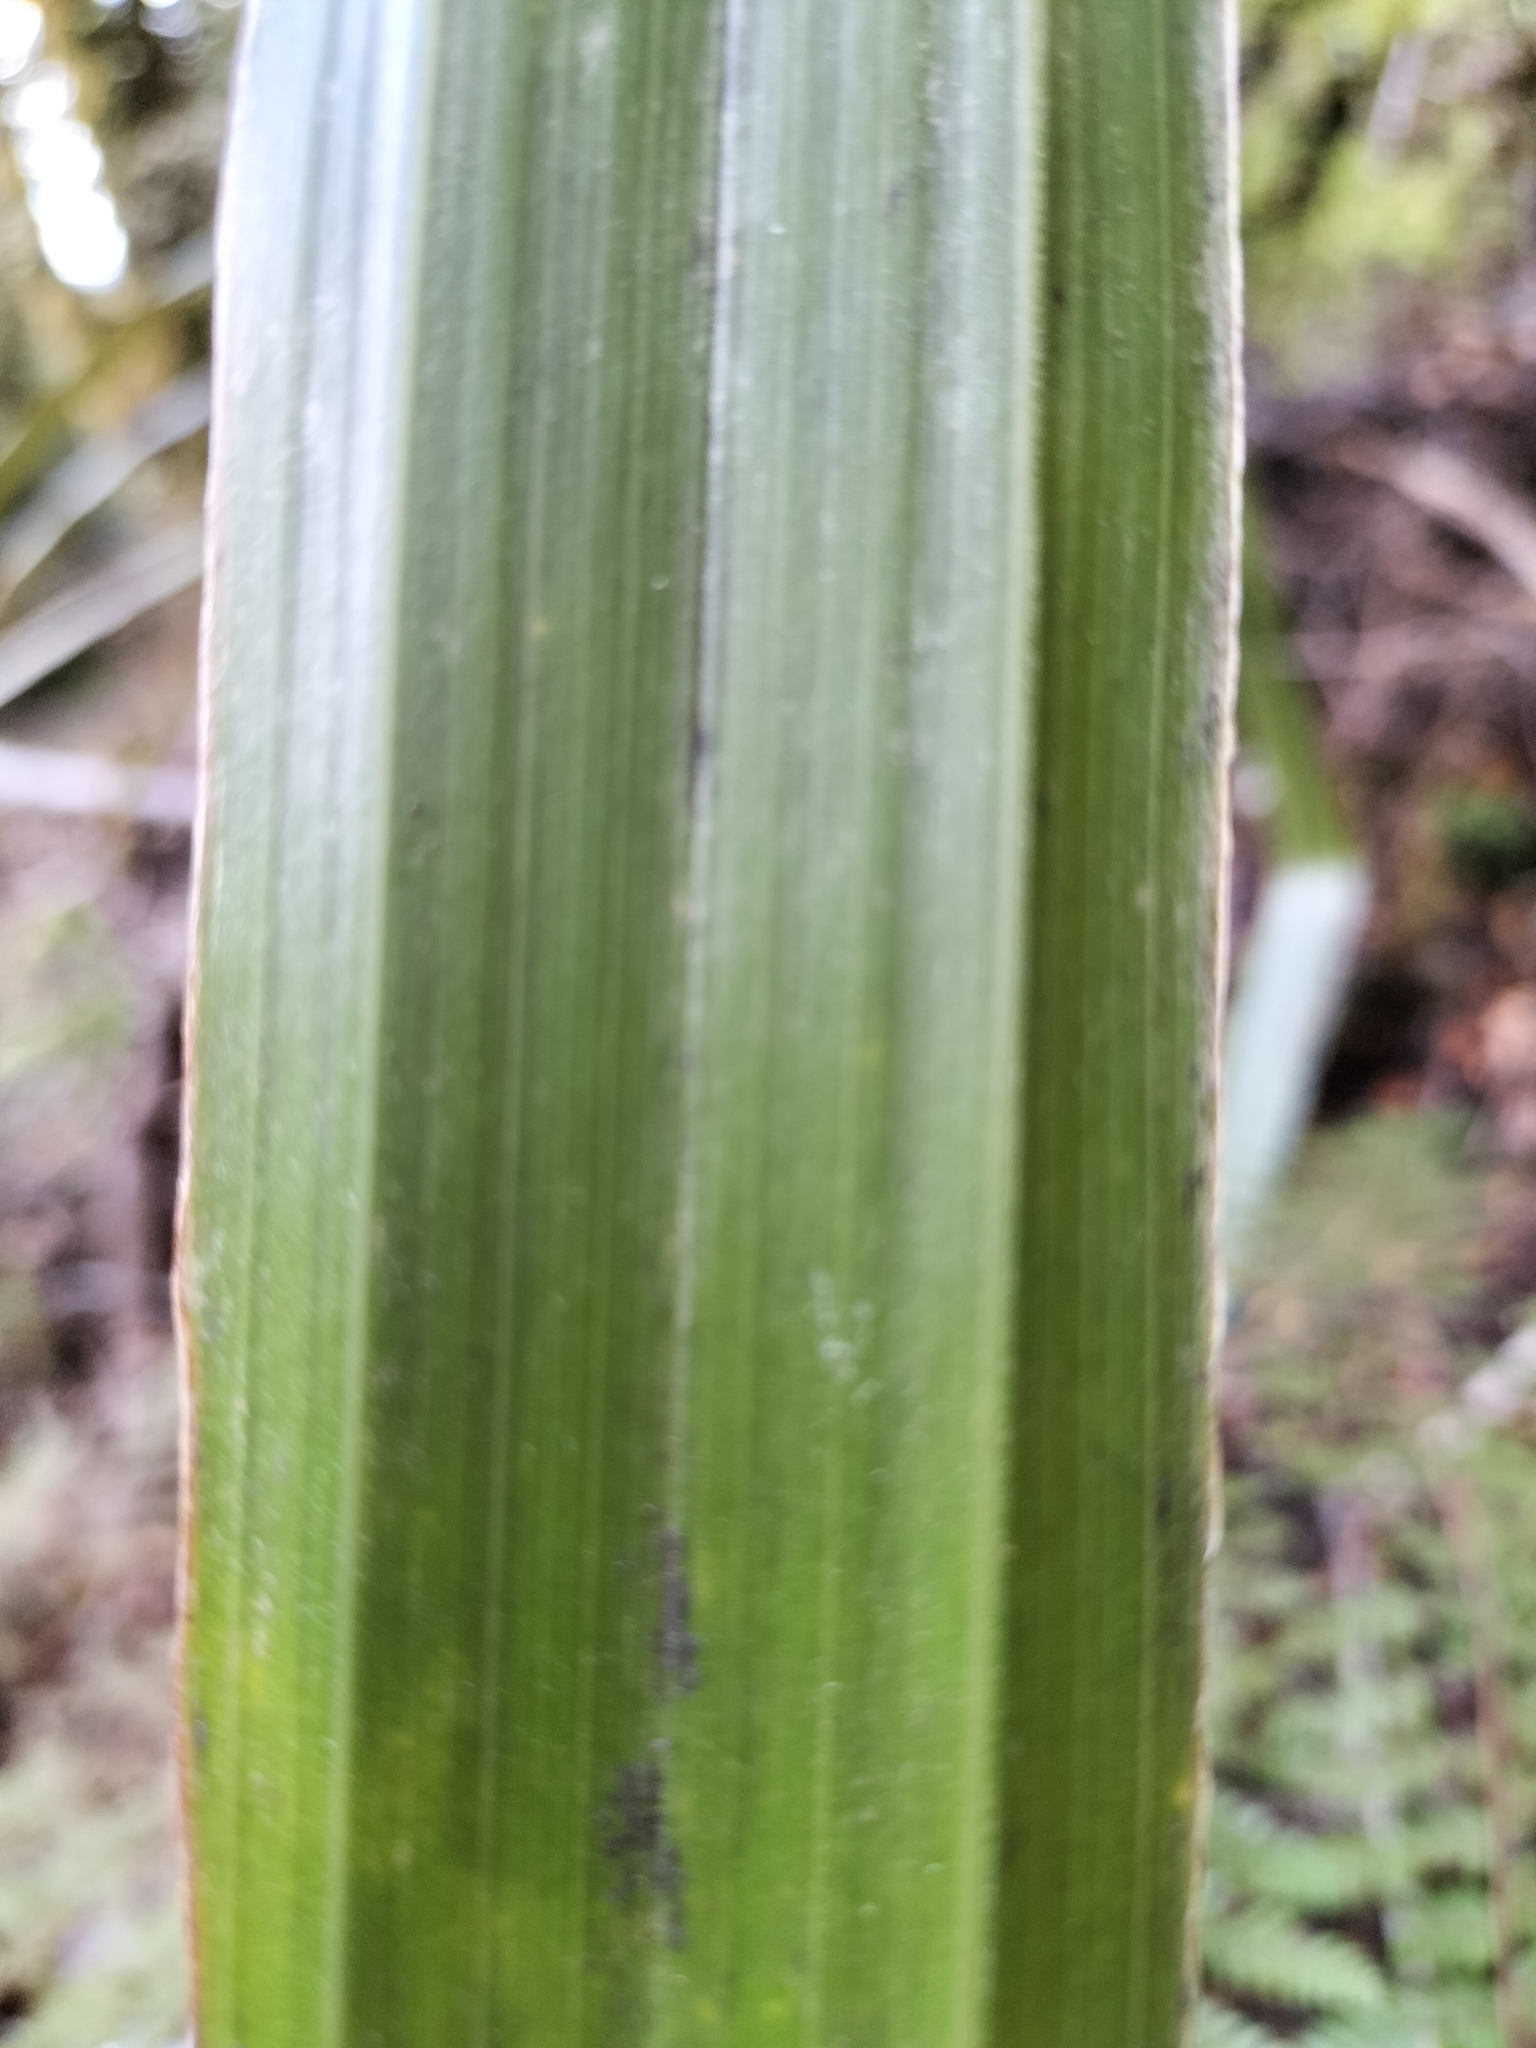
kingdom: Plantae
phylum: Tracheophyta
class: Liliopsida
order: Asparagales
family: Asteliaceae
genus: Astelia
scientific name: Astelia nivicola
